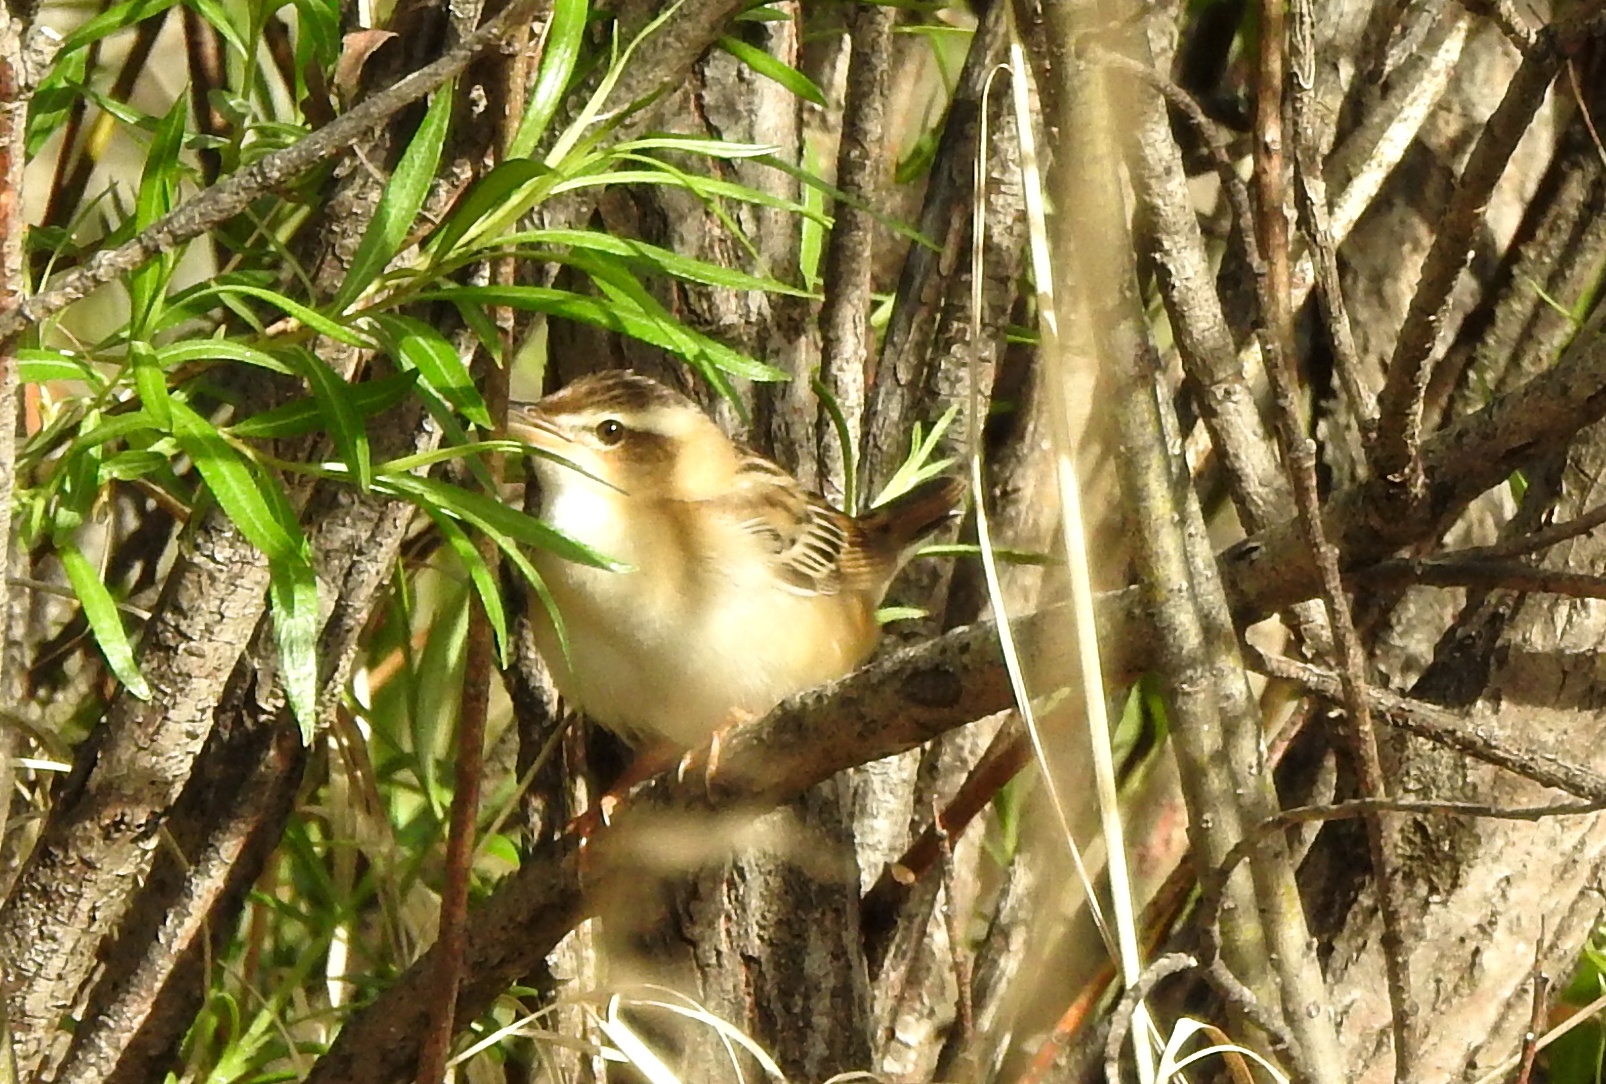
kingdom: Animalia
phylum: Chordata
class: Aves
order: Passeriformes
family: Locustellidae
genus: Locustella
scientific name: Locustella certhiola
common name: Pallas's grasshopper warbler
